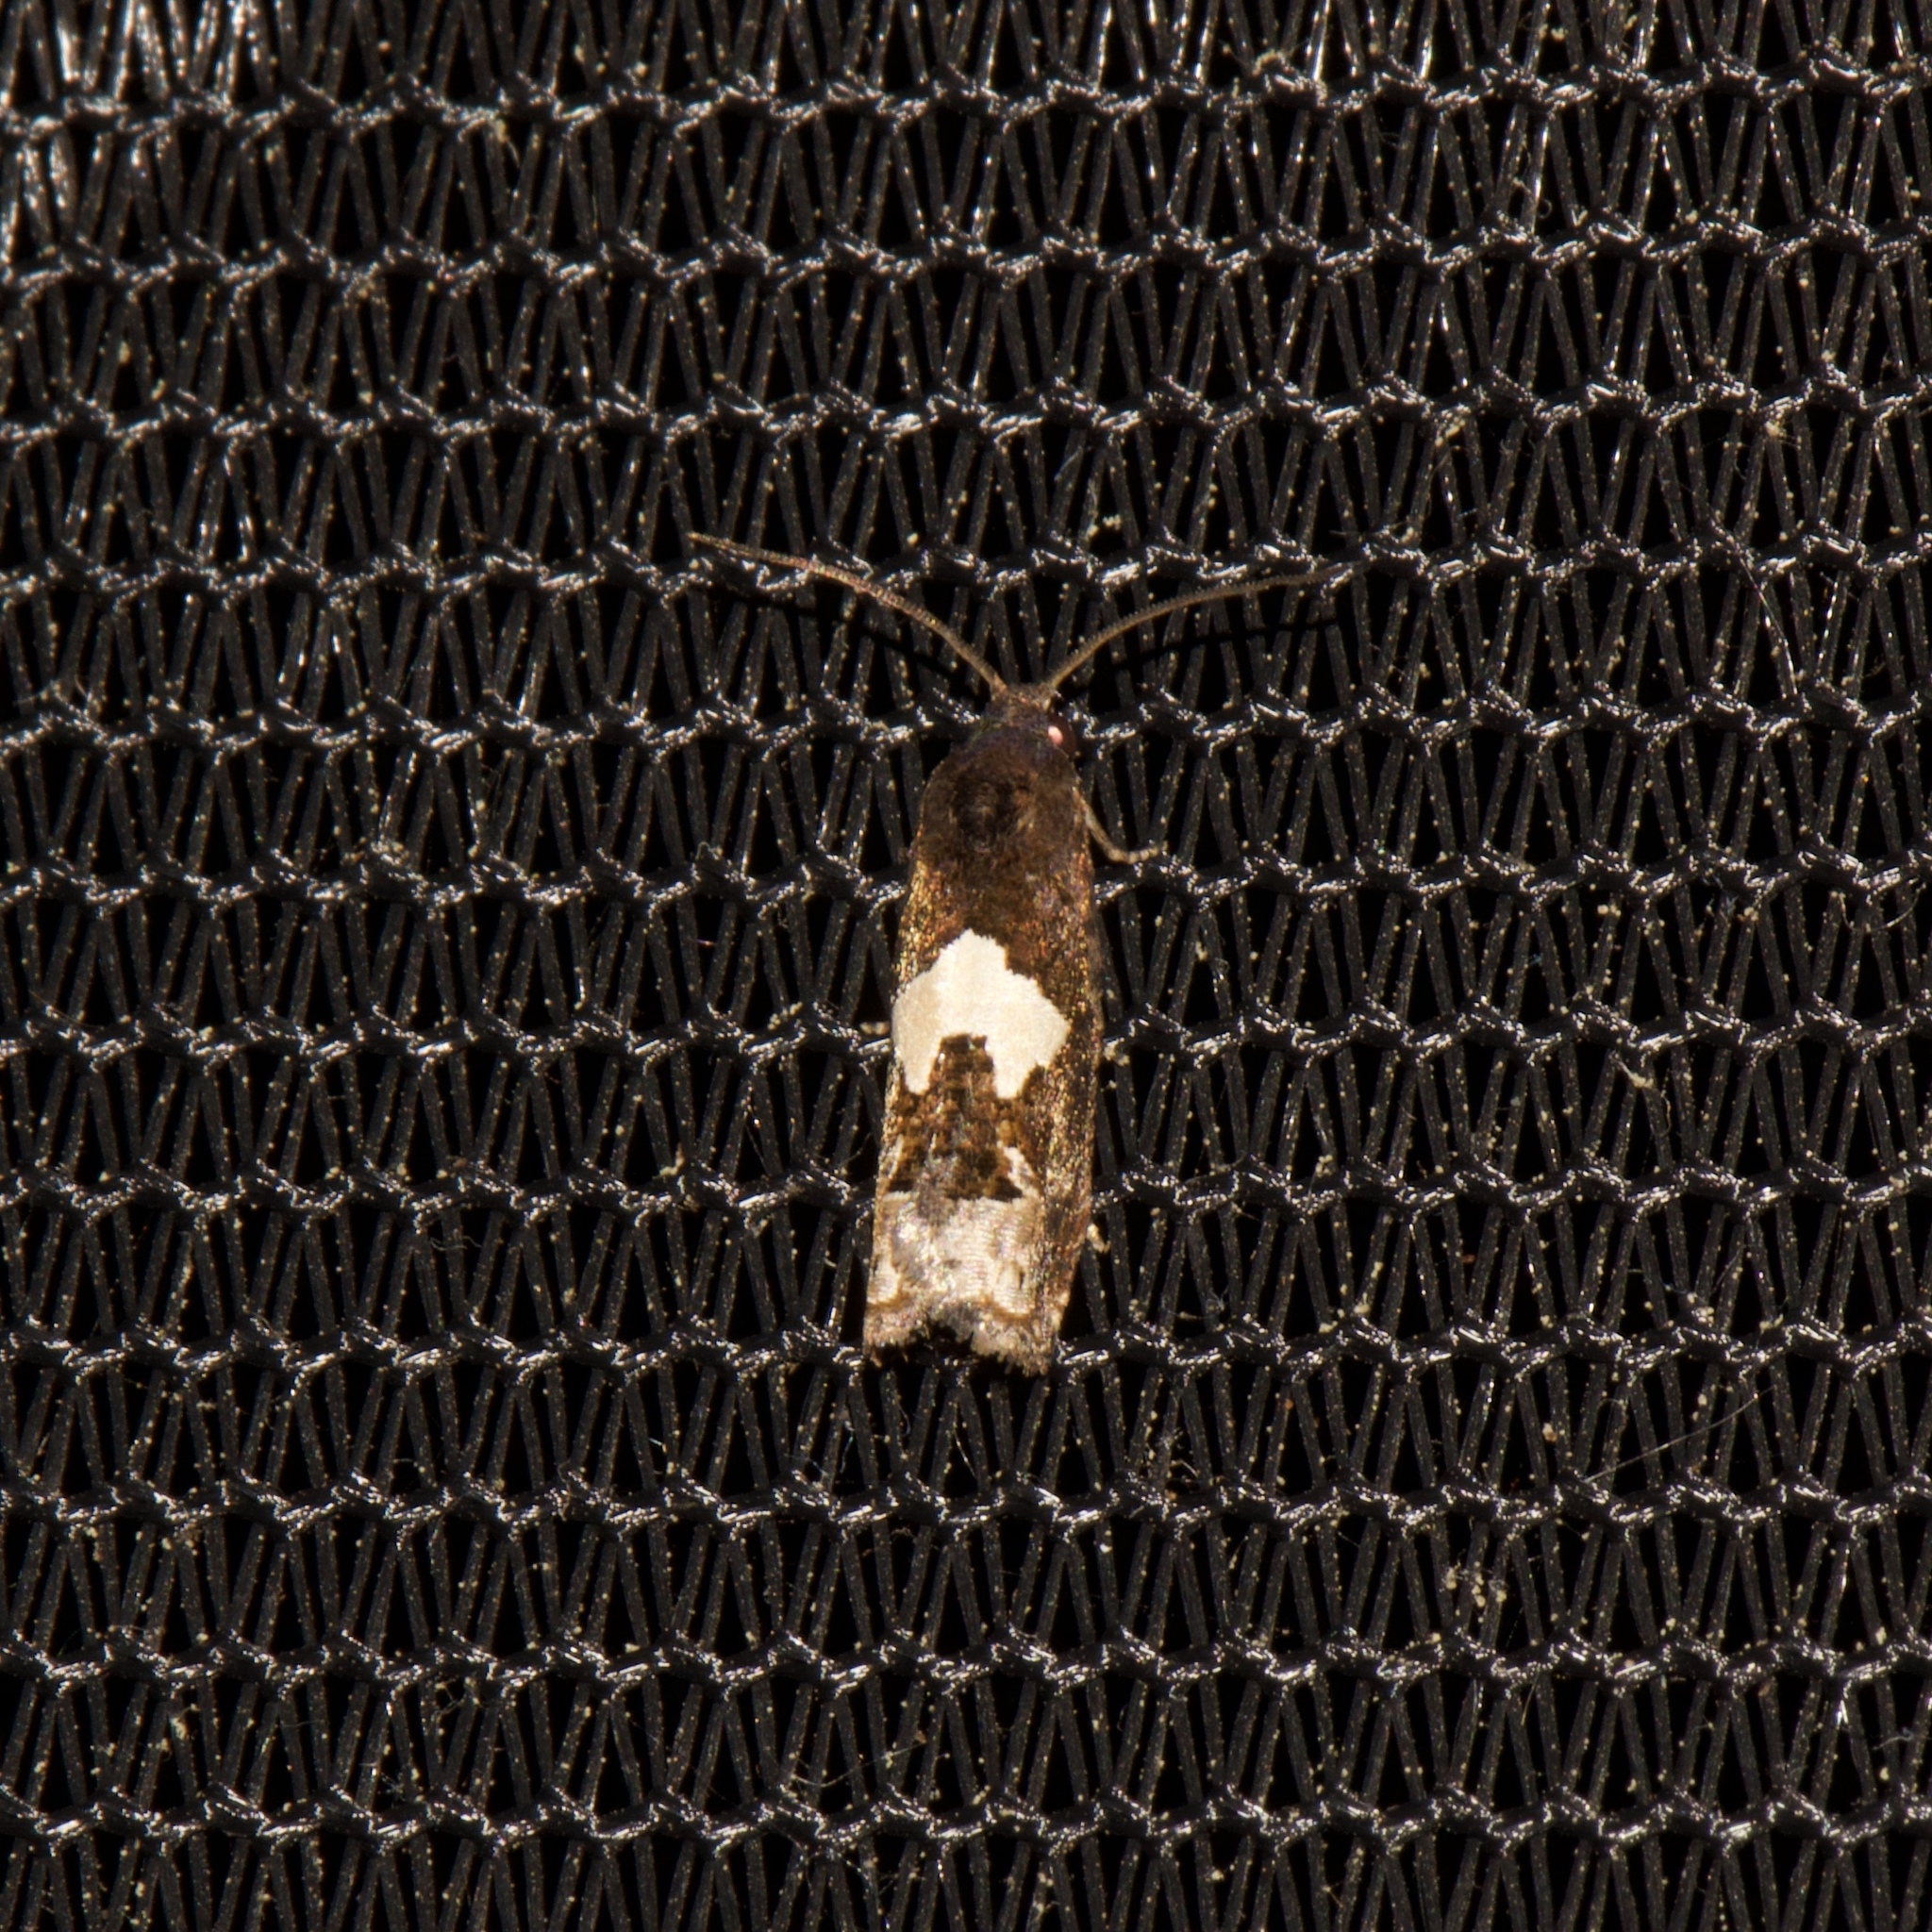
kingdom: Animalia
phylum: Arthropoda
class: Insecta
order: Lepidoptera
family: Tortricidae
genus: Epiblema
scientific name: Epiblema otiosana
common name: Bidens borer moth
